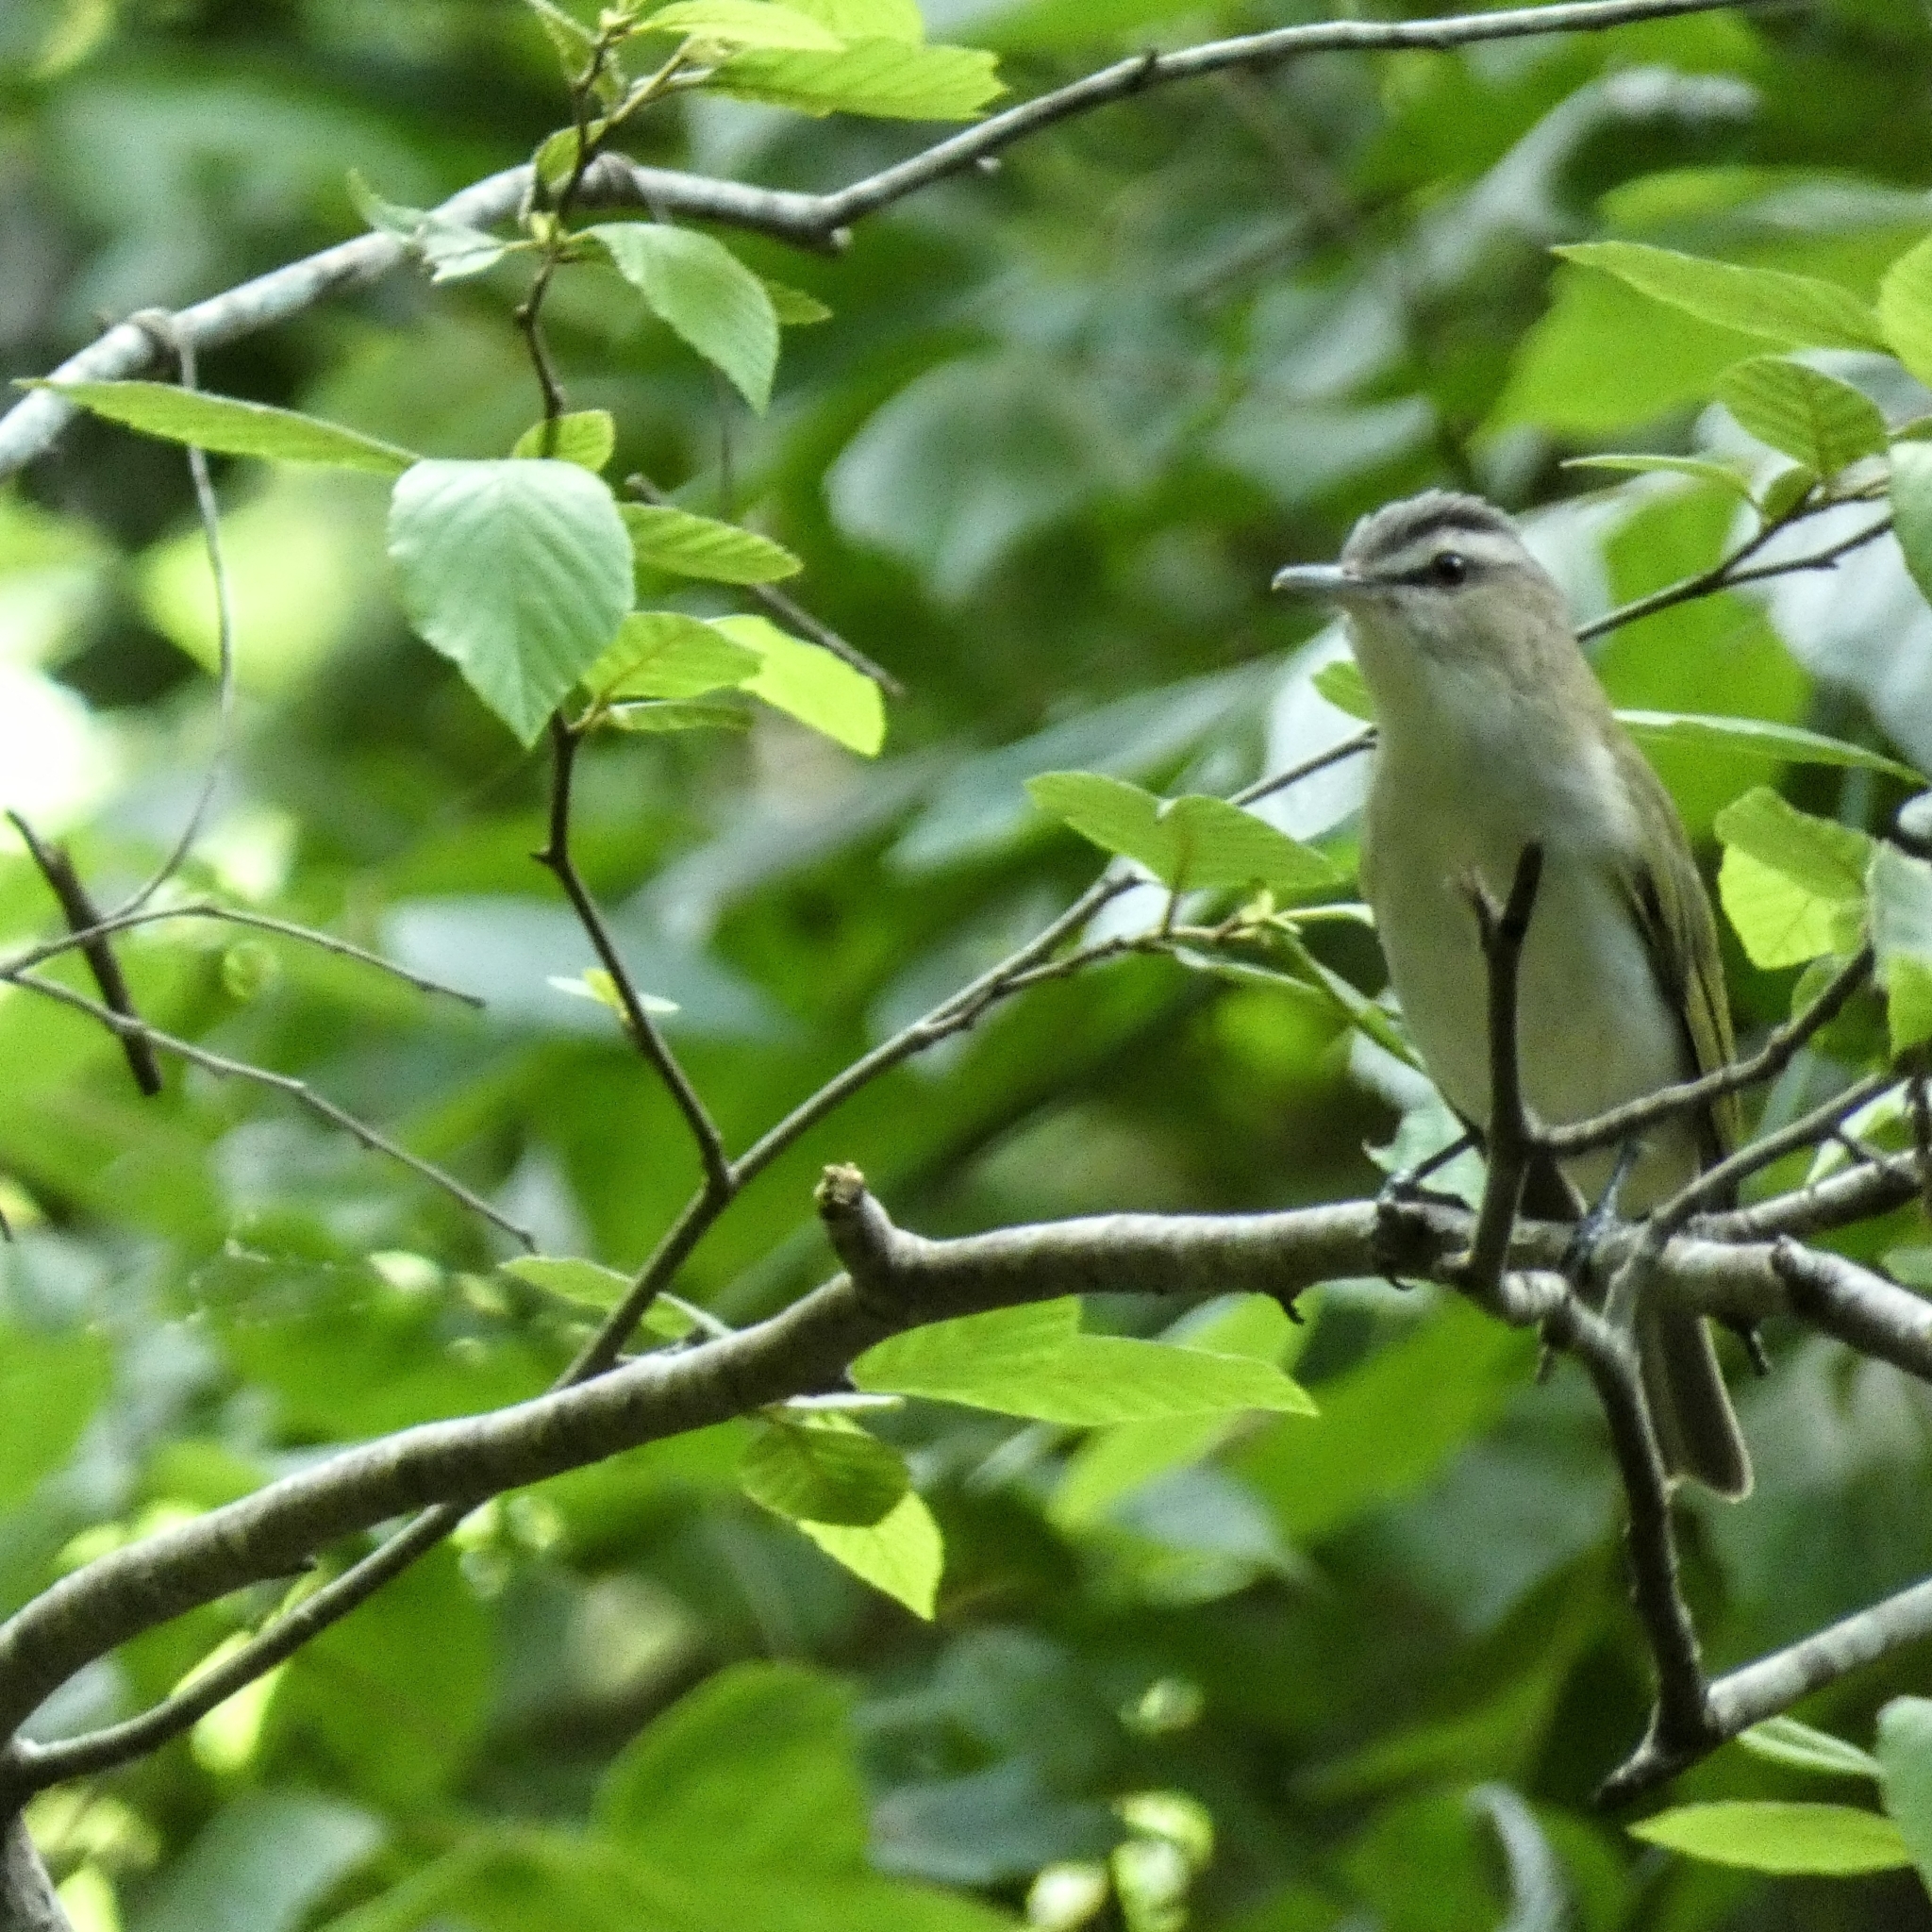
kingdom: Animalia
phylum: Chordata
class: Aves
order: Passeriformes
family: Vireonidae
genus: Vireo
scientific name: Vireo olivaceus
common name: Red-eyed vireo
